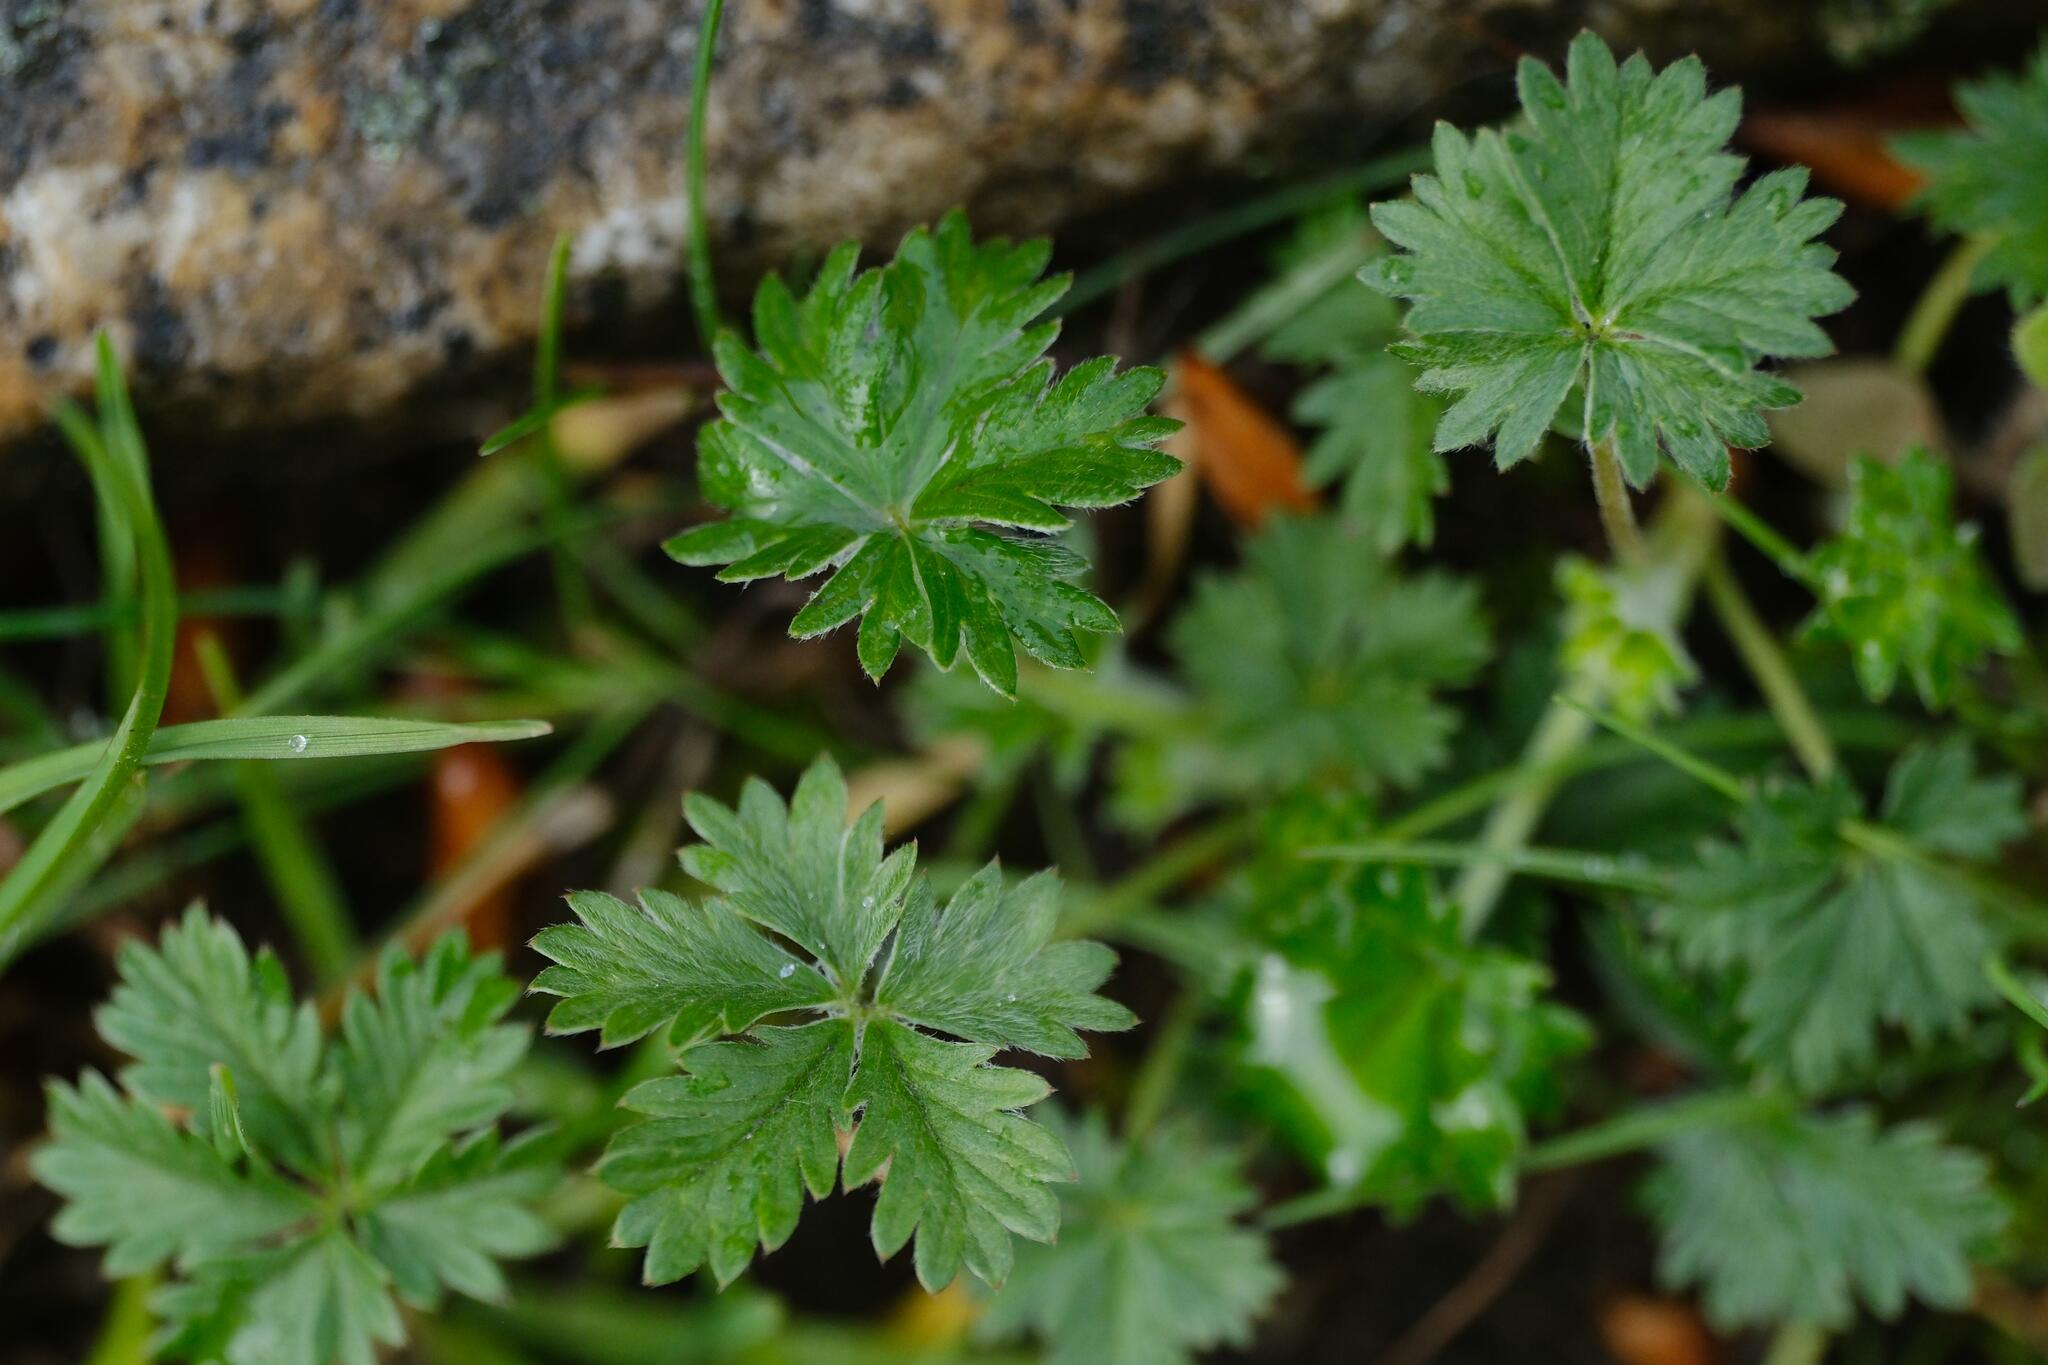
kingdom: Plantae
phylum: Tracheophyta
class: Magnoliopsida
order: Rosales
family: Rosaceae
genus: Potentilla
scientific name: Potentilla argentea
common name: Hoary cinquefoil
